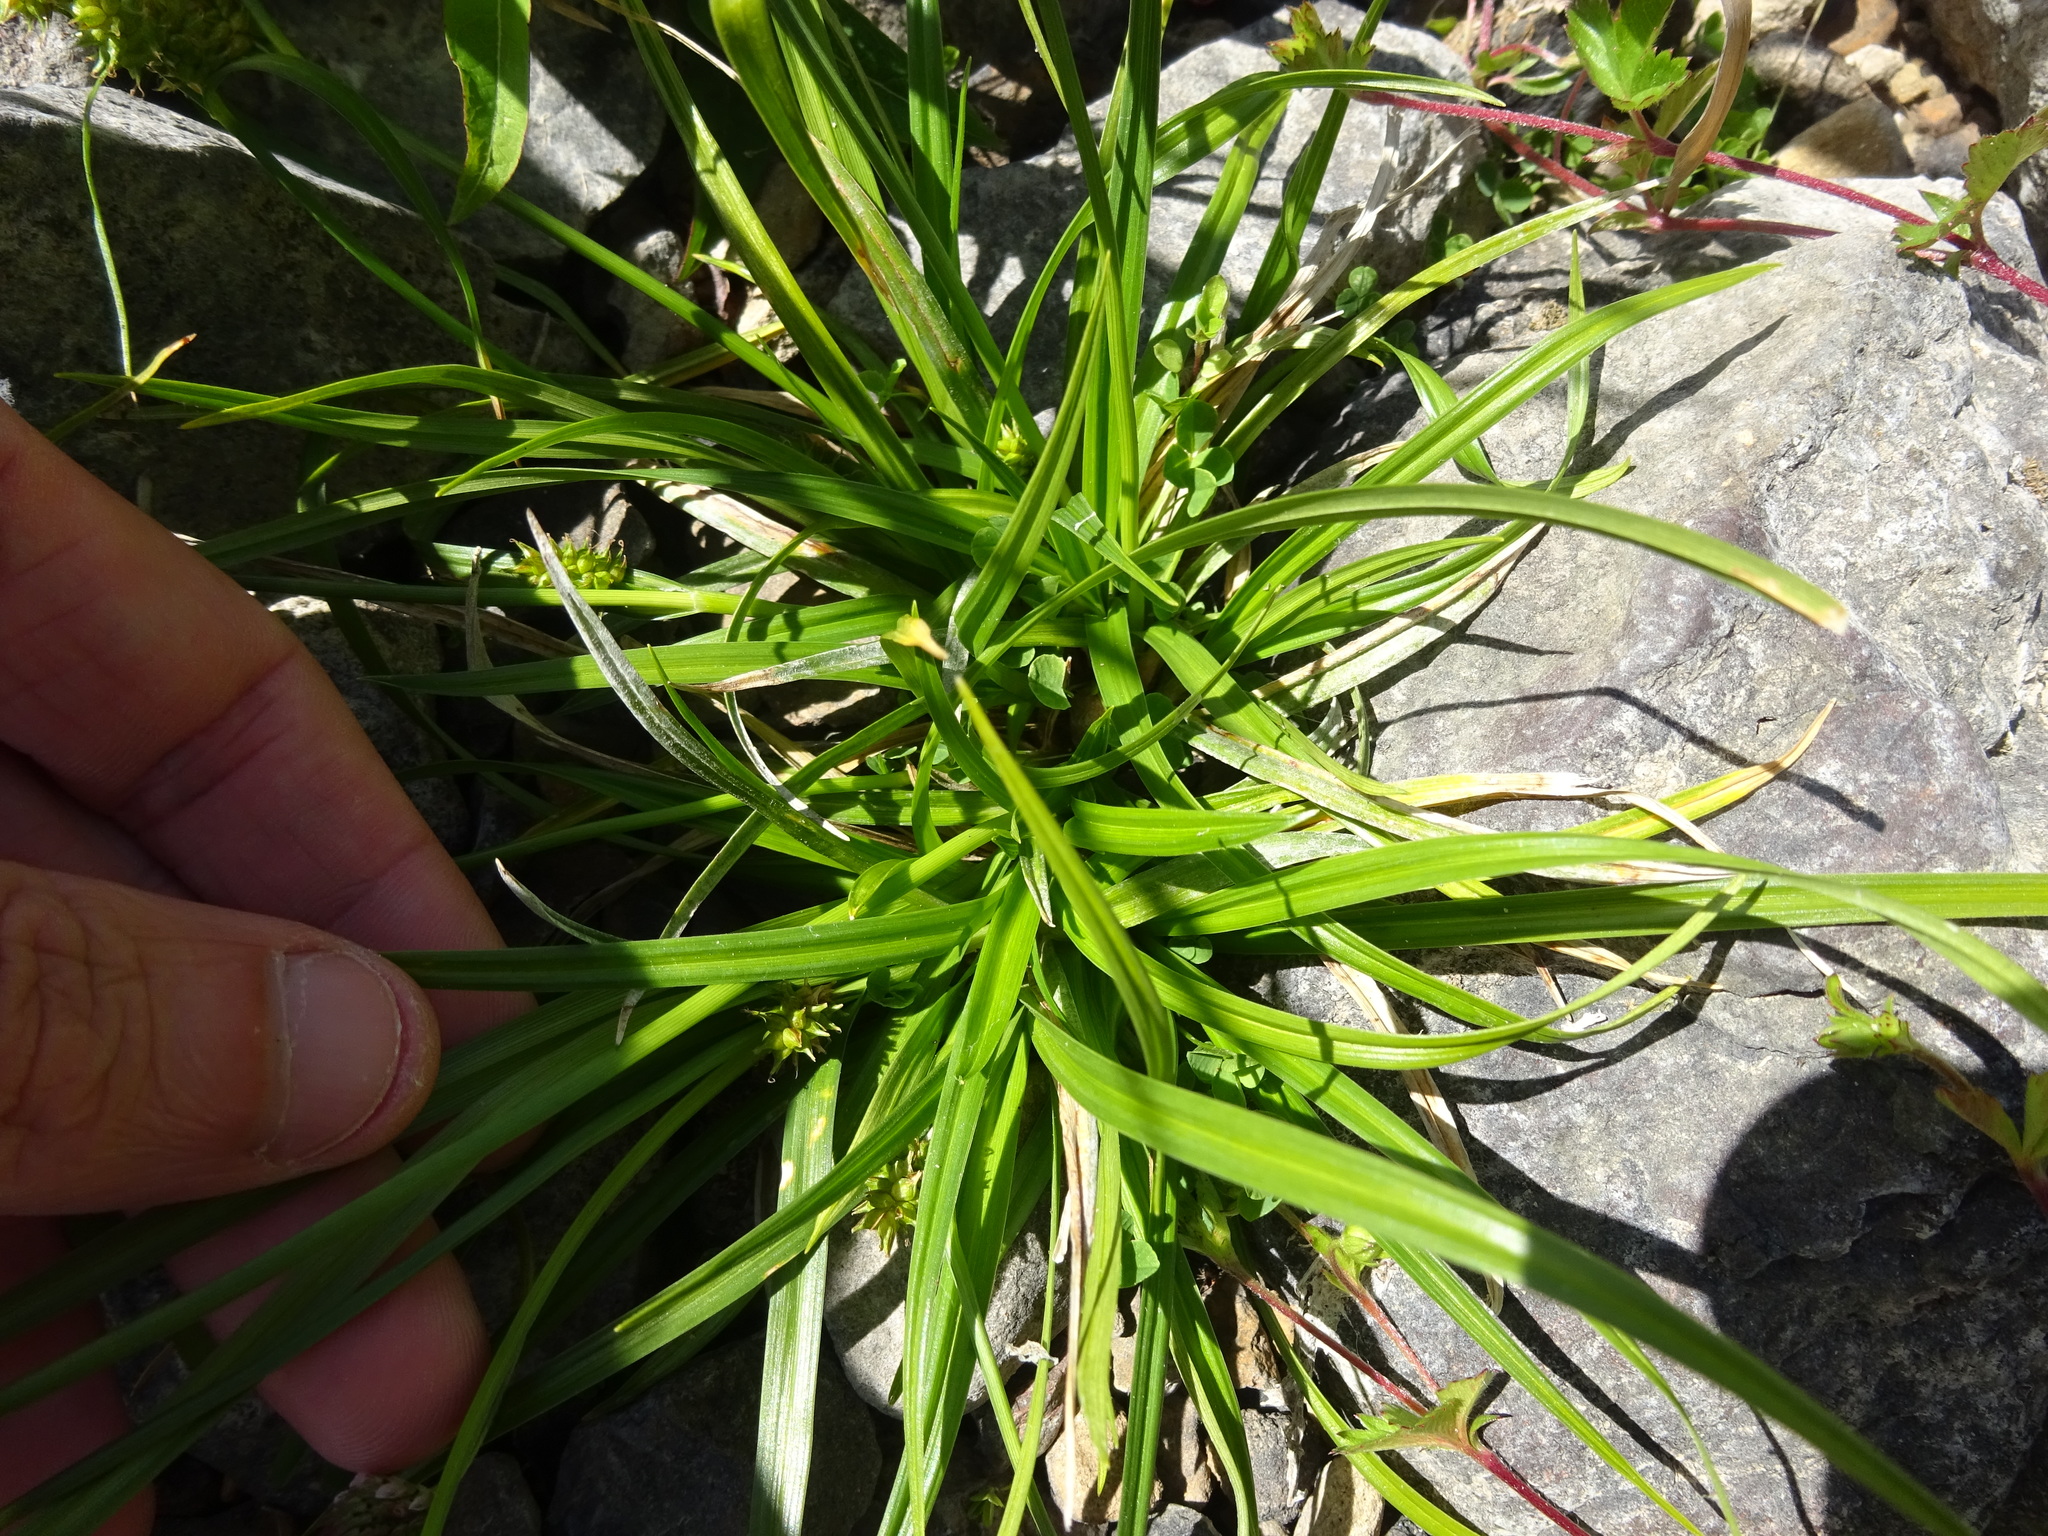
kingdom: Plantae
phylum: Tracheophyta
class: Liliopsida
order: Poales
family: Cyperaceae
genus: Carex
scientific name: Carex demissa
